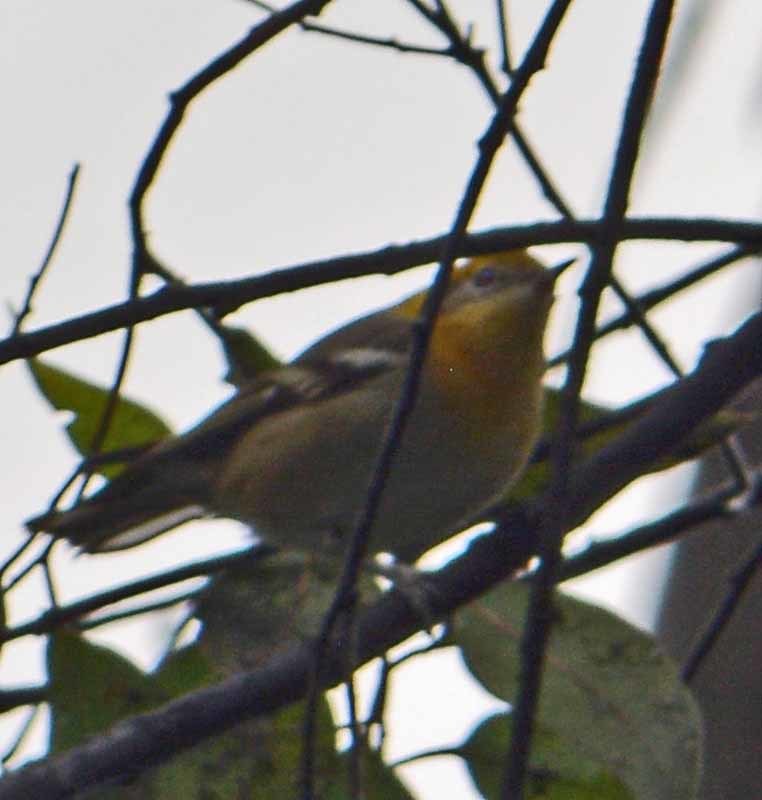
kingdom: Animalia
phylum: Chordata
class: Aves
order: Passeriformes
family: Peucedramidae
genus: Peucedramus
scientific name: Peucedramus taeniatus
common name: Olive warbler
